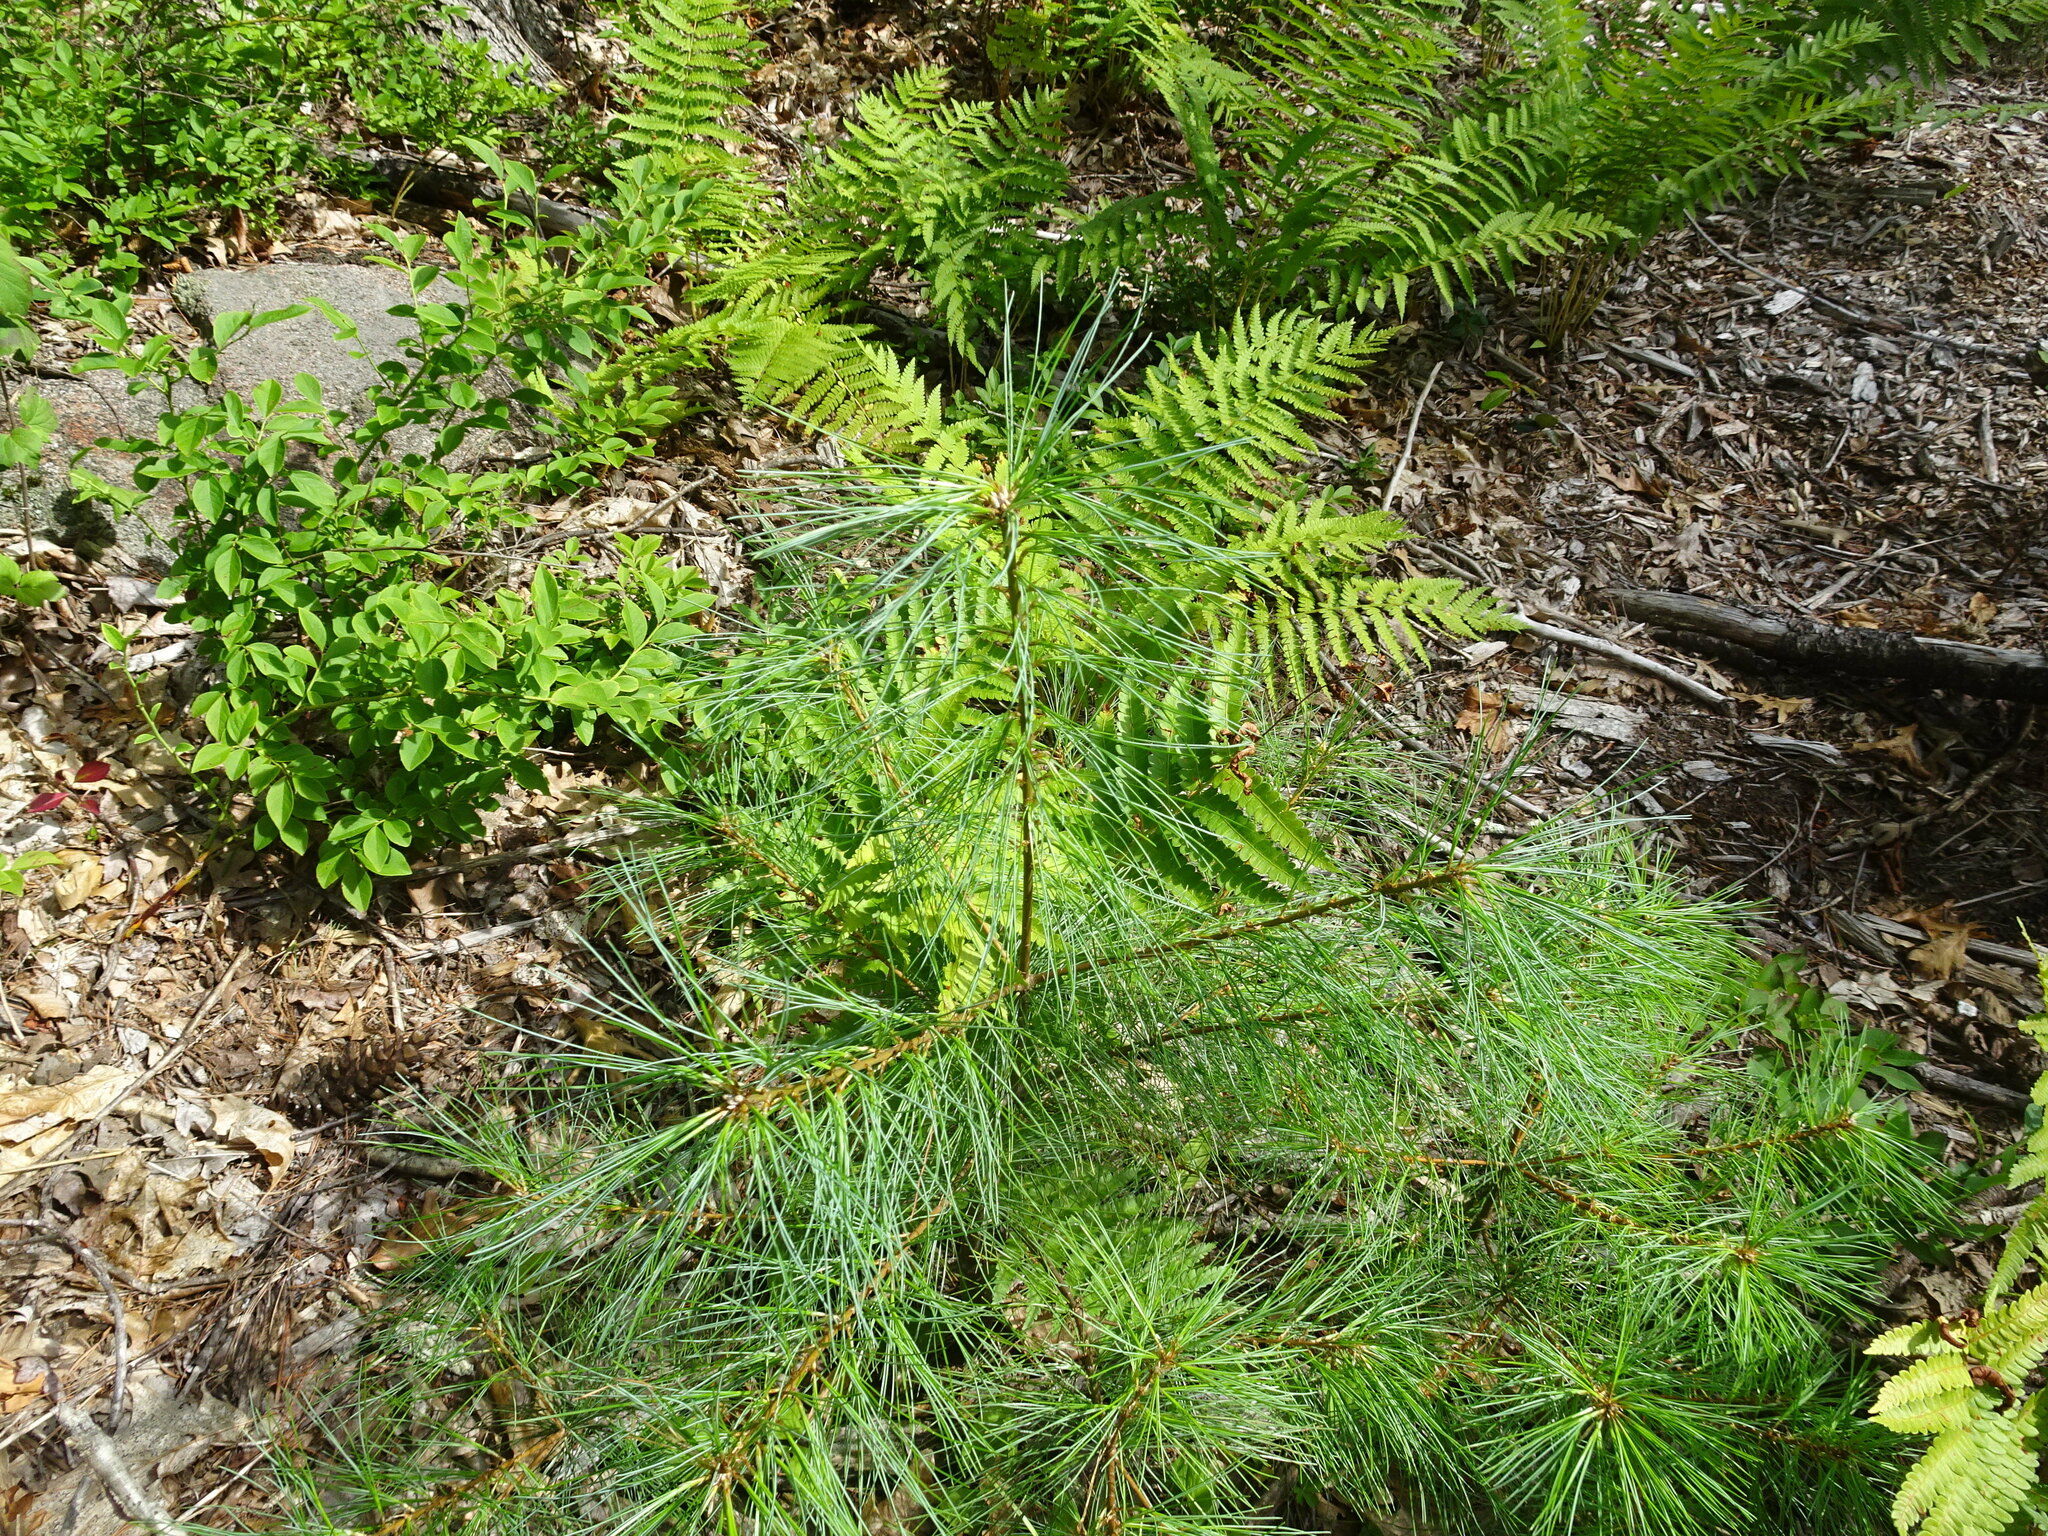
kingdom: Plantae
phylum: Tracheophyta
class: Pinopsida
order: Pinales
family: Pinaceae
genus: Pinus
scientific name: Pinus strobus
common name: Weymouth pine
